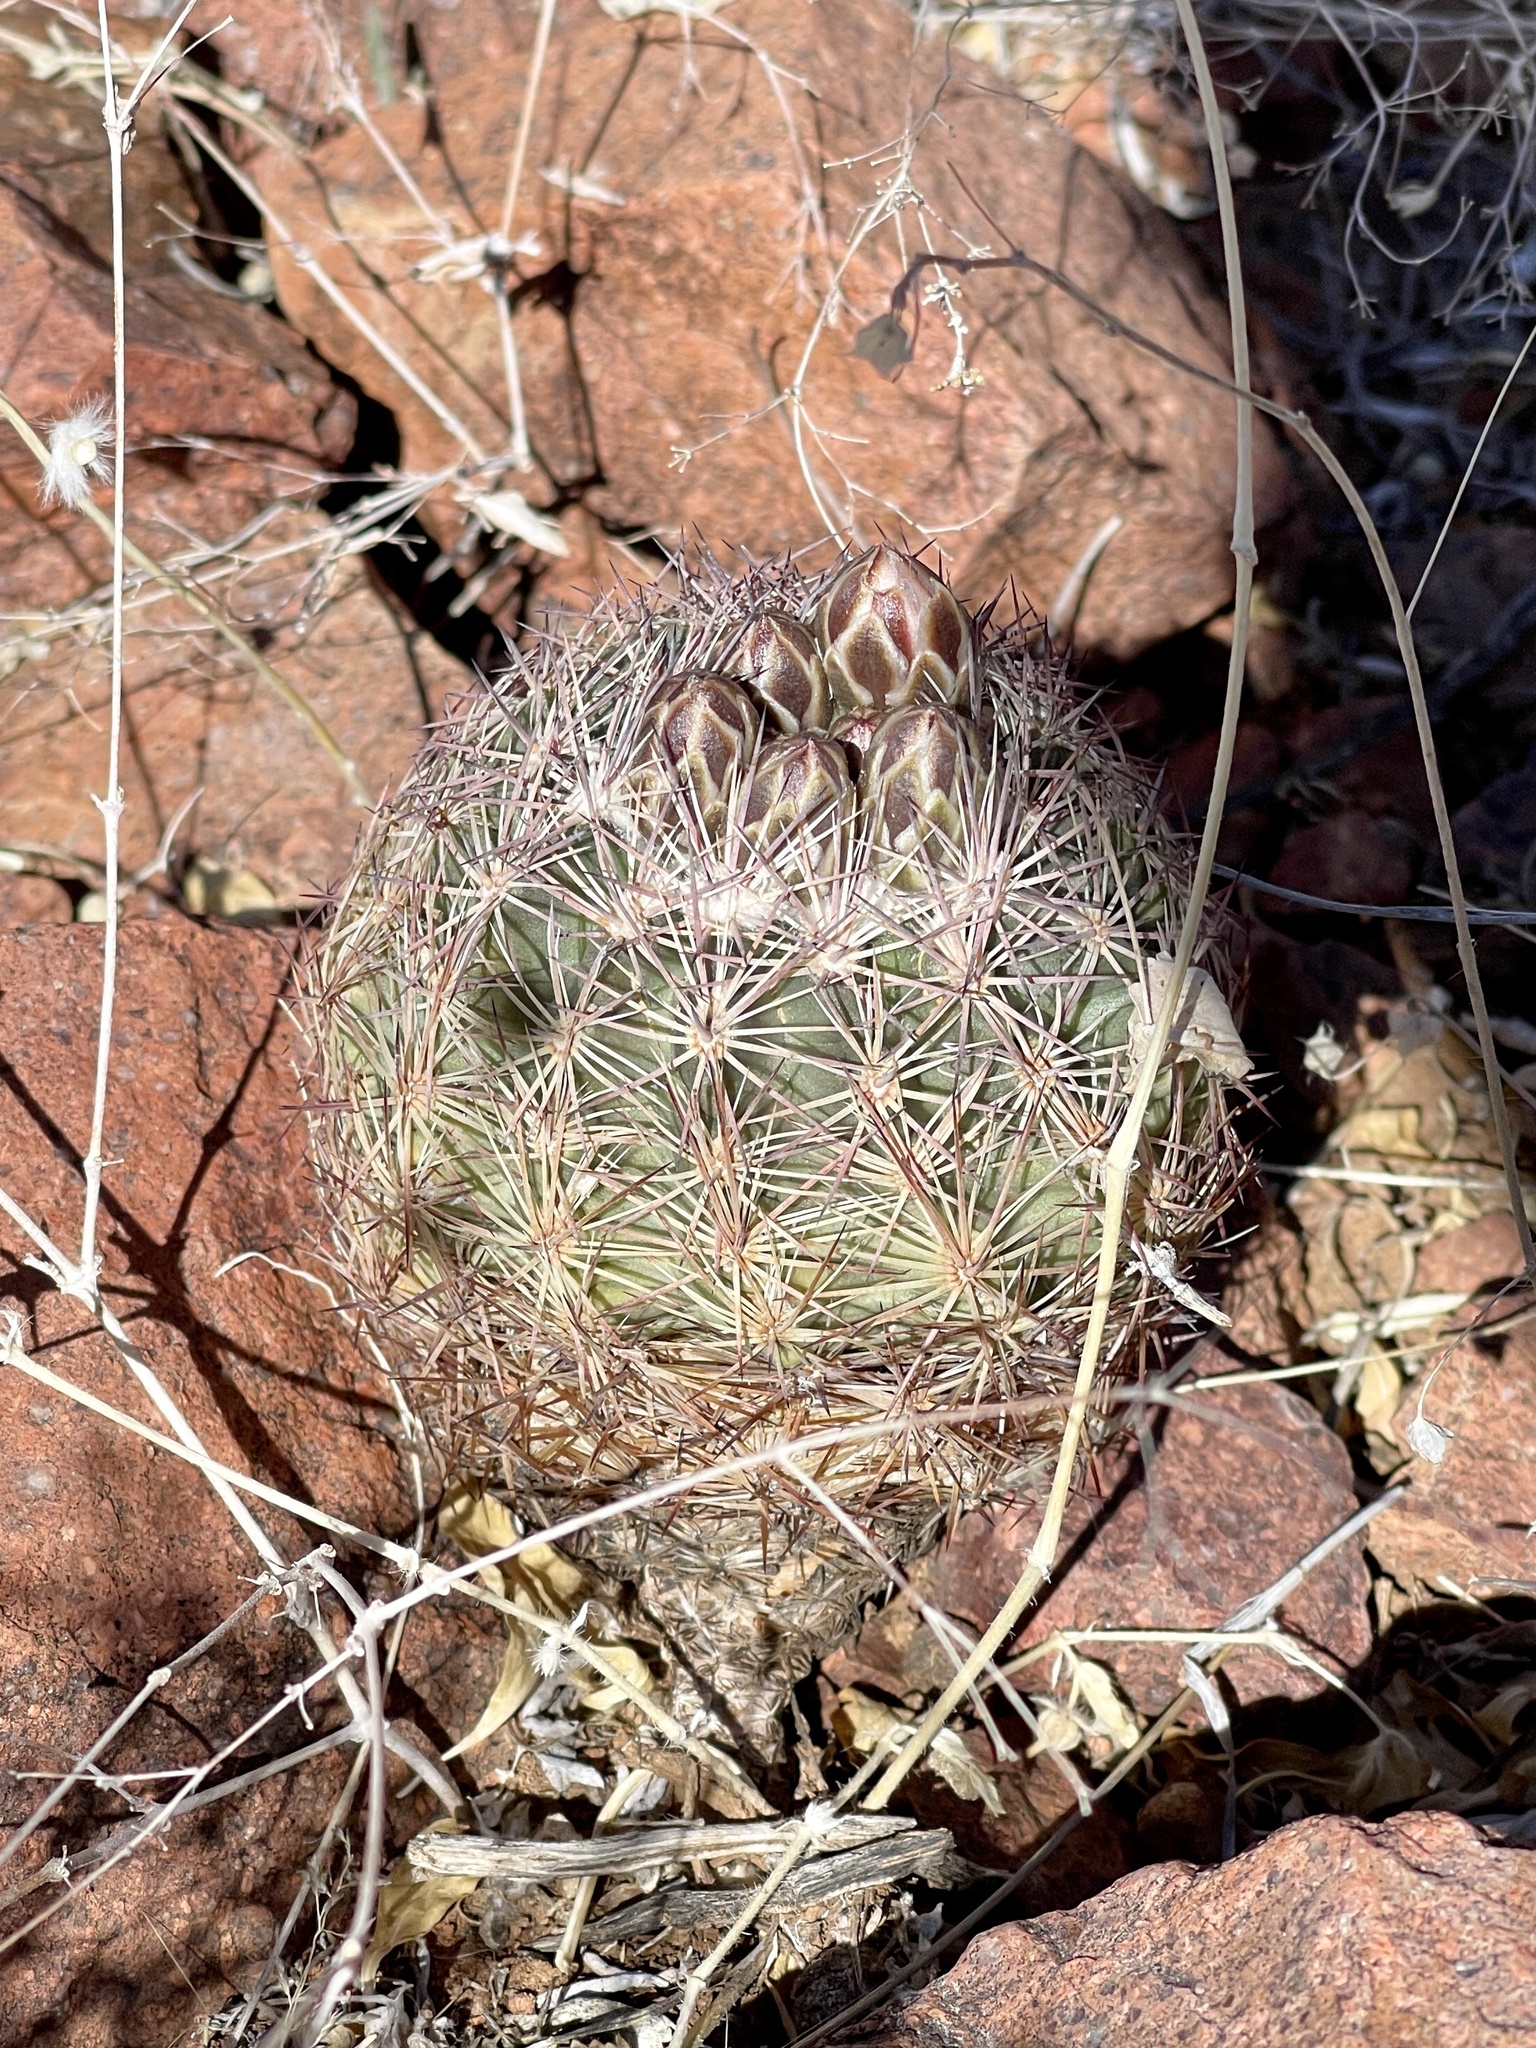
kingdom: Plantae
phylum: Tracheophyta
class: Magnoliopsida
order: Caryophyllales
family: Cactaceae
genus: Sclerocactus
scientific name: Sclerocactus intertextus
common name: White fish-hook cactus
